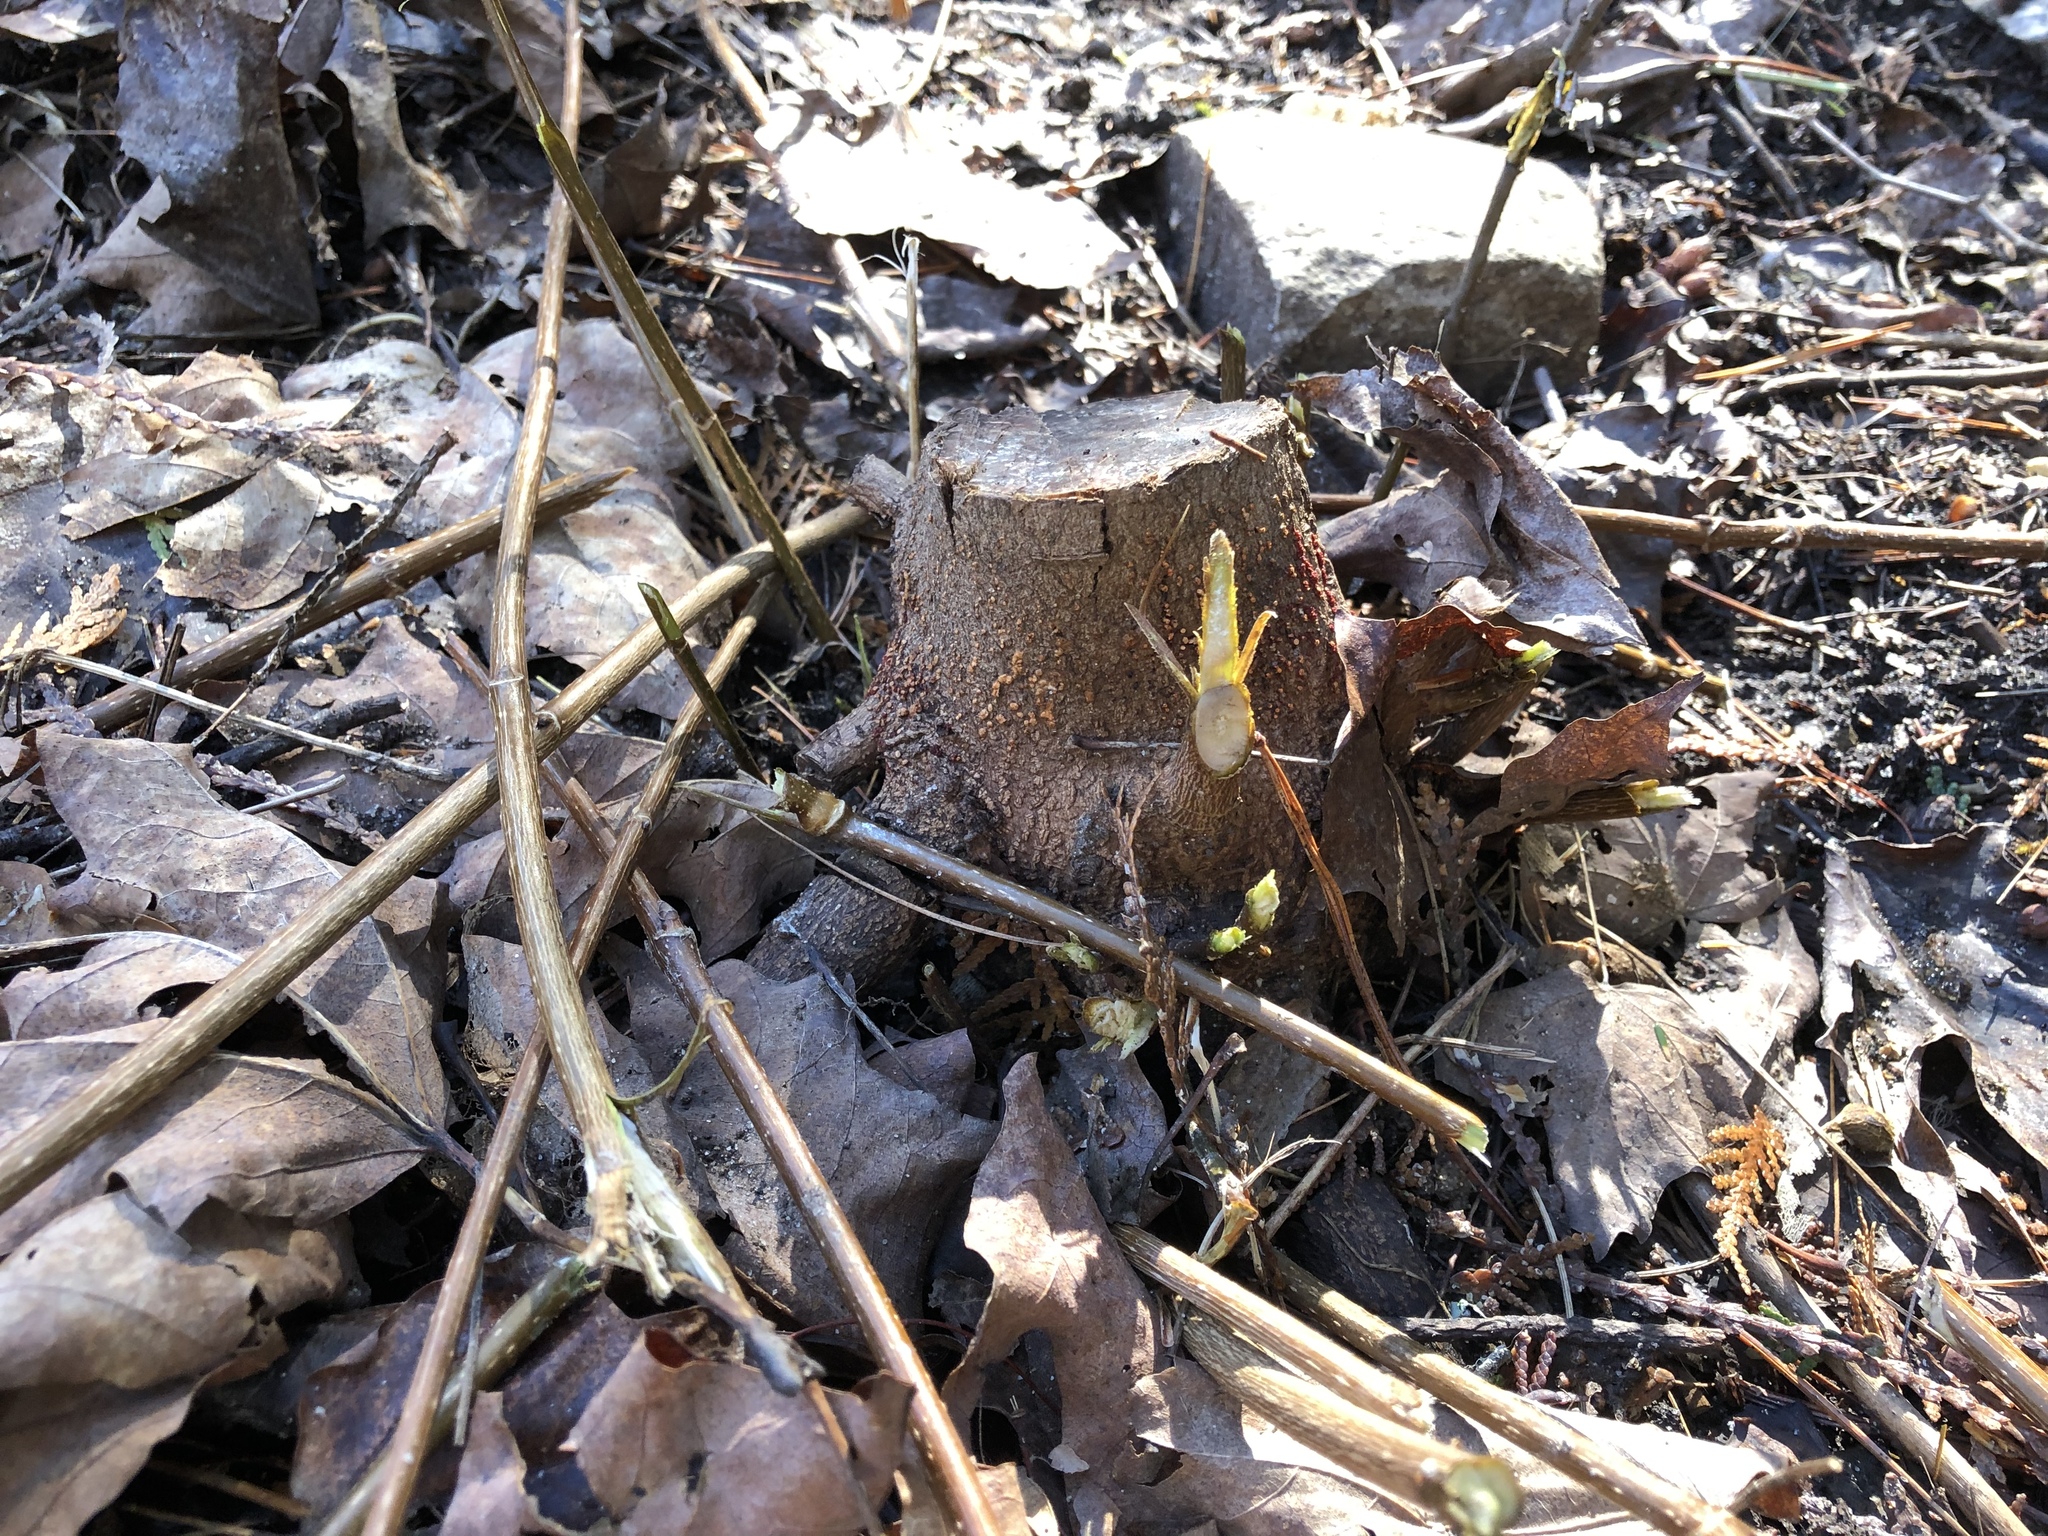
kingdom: Fungi
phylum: Ascomycota
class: Sordariomycetes
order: Hypocreales
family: Nectriaceae
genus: Nectria
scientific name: Nectria cinnabarina
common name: Coral spot
